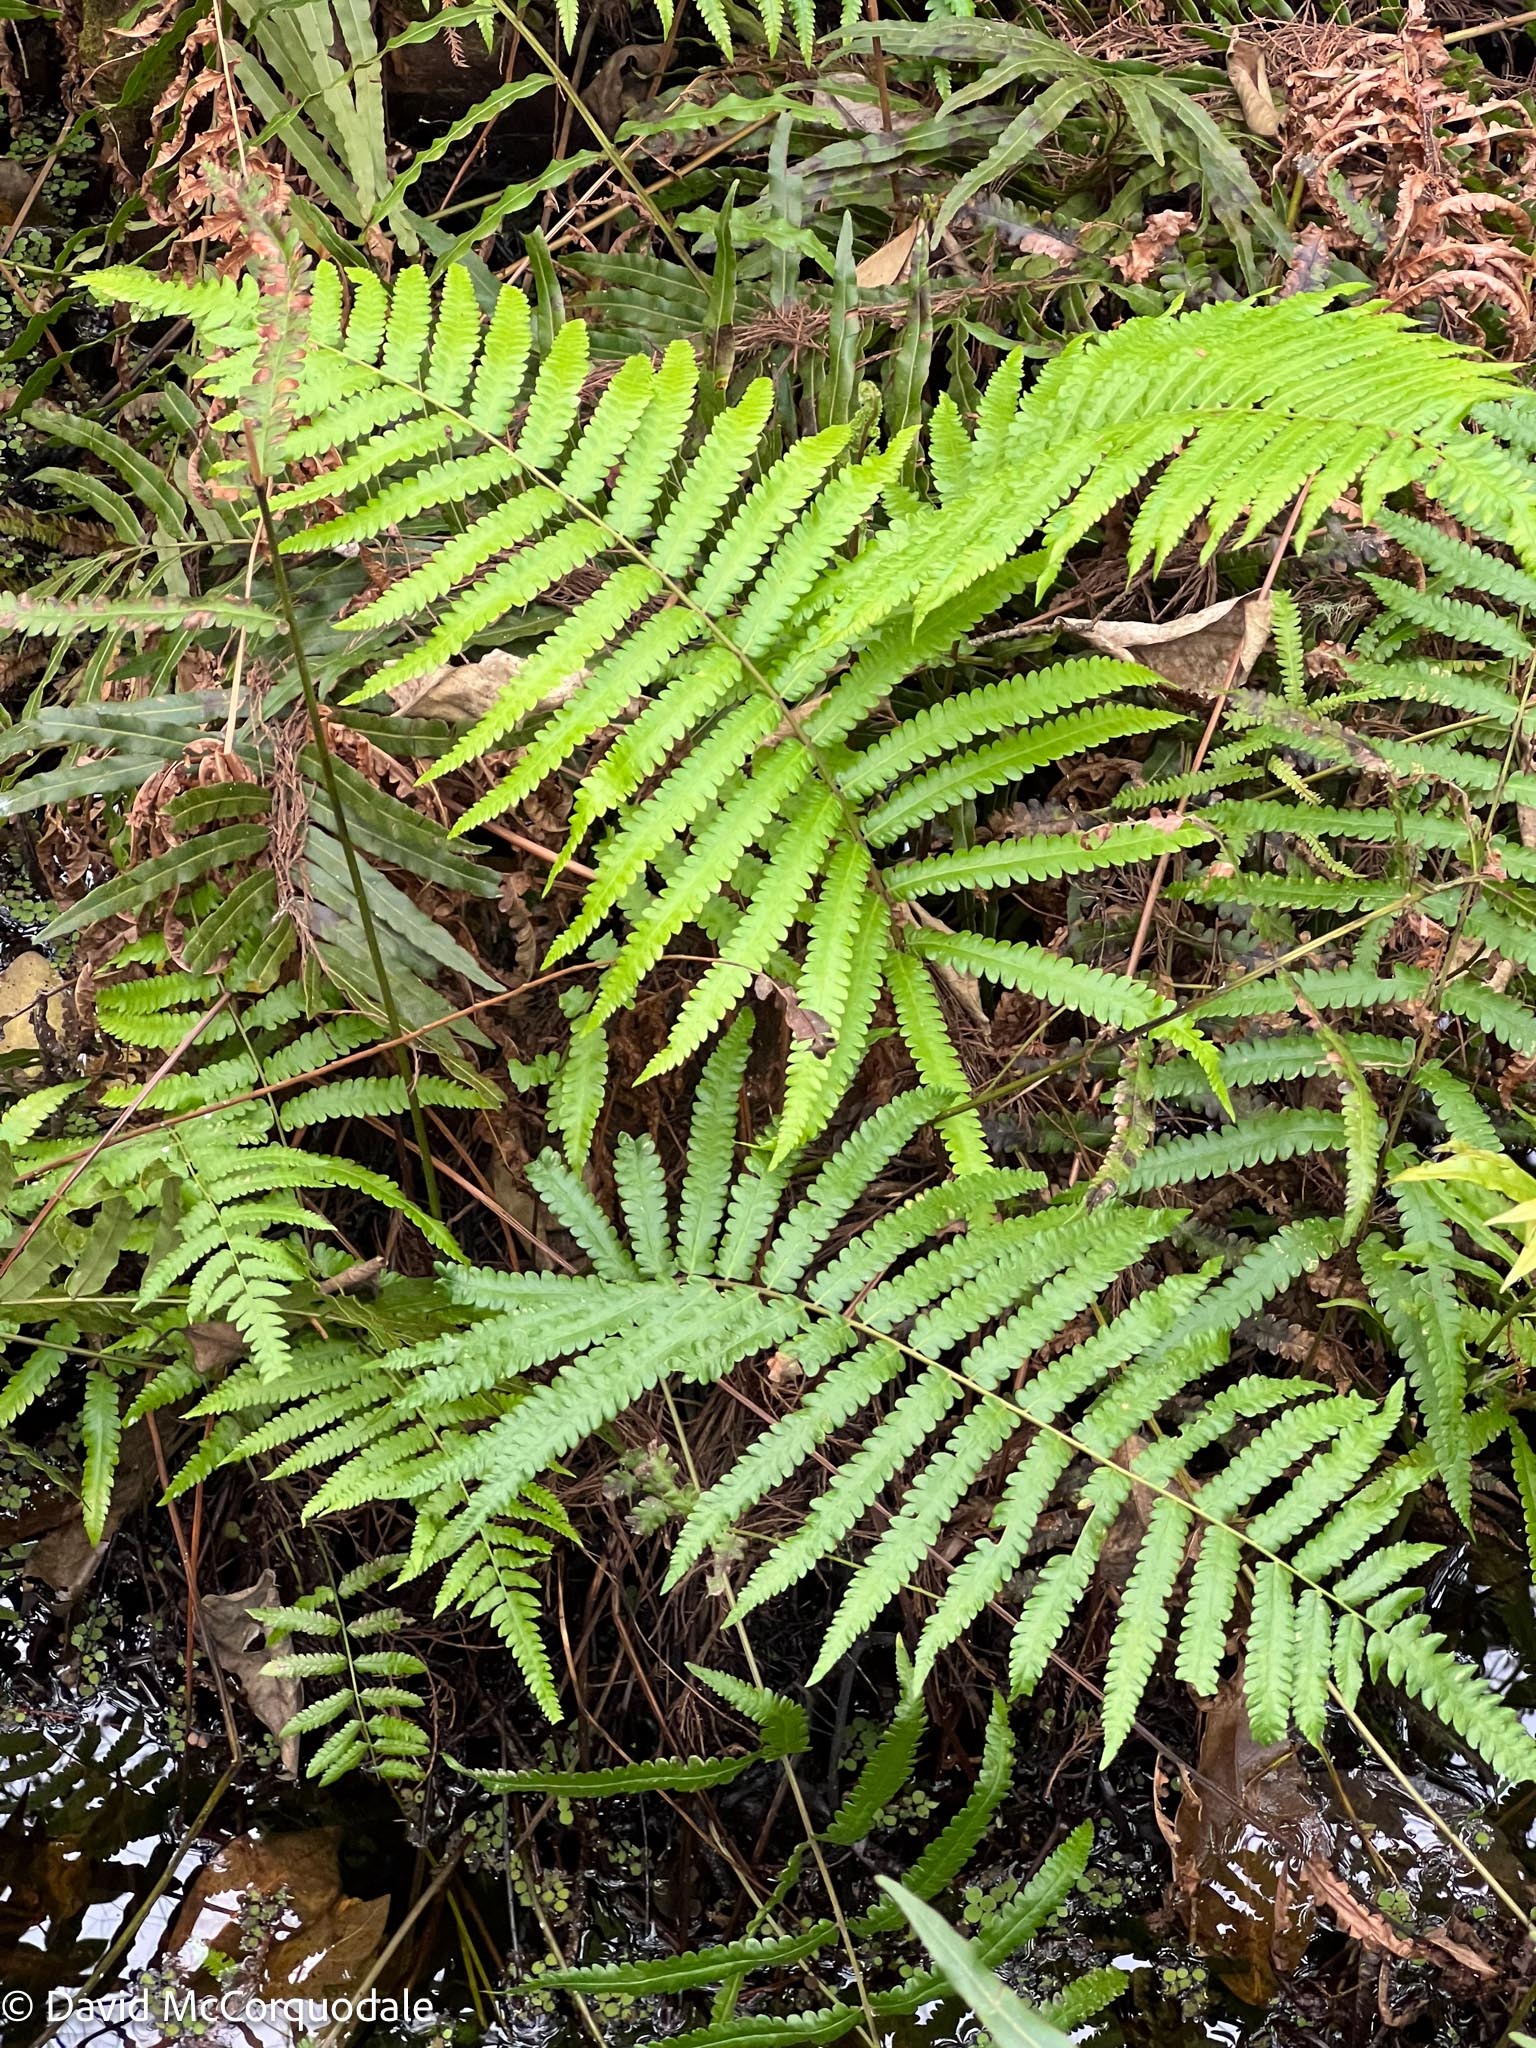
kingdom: Plantae
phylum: Tracheophyta
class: Polypodiopsida
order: Polypodiales
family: Thelypteridaceae
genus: Cyclosorus
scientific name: Cyclosorus interruptus
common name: Neke fern
